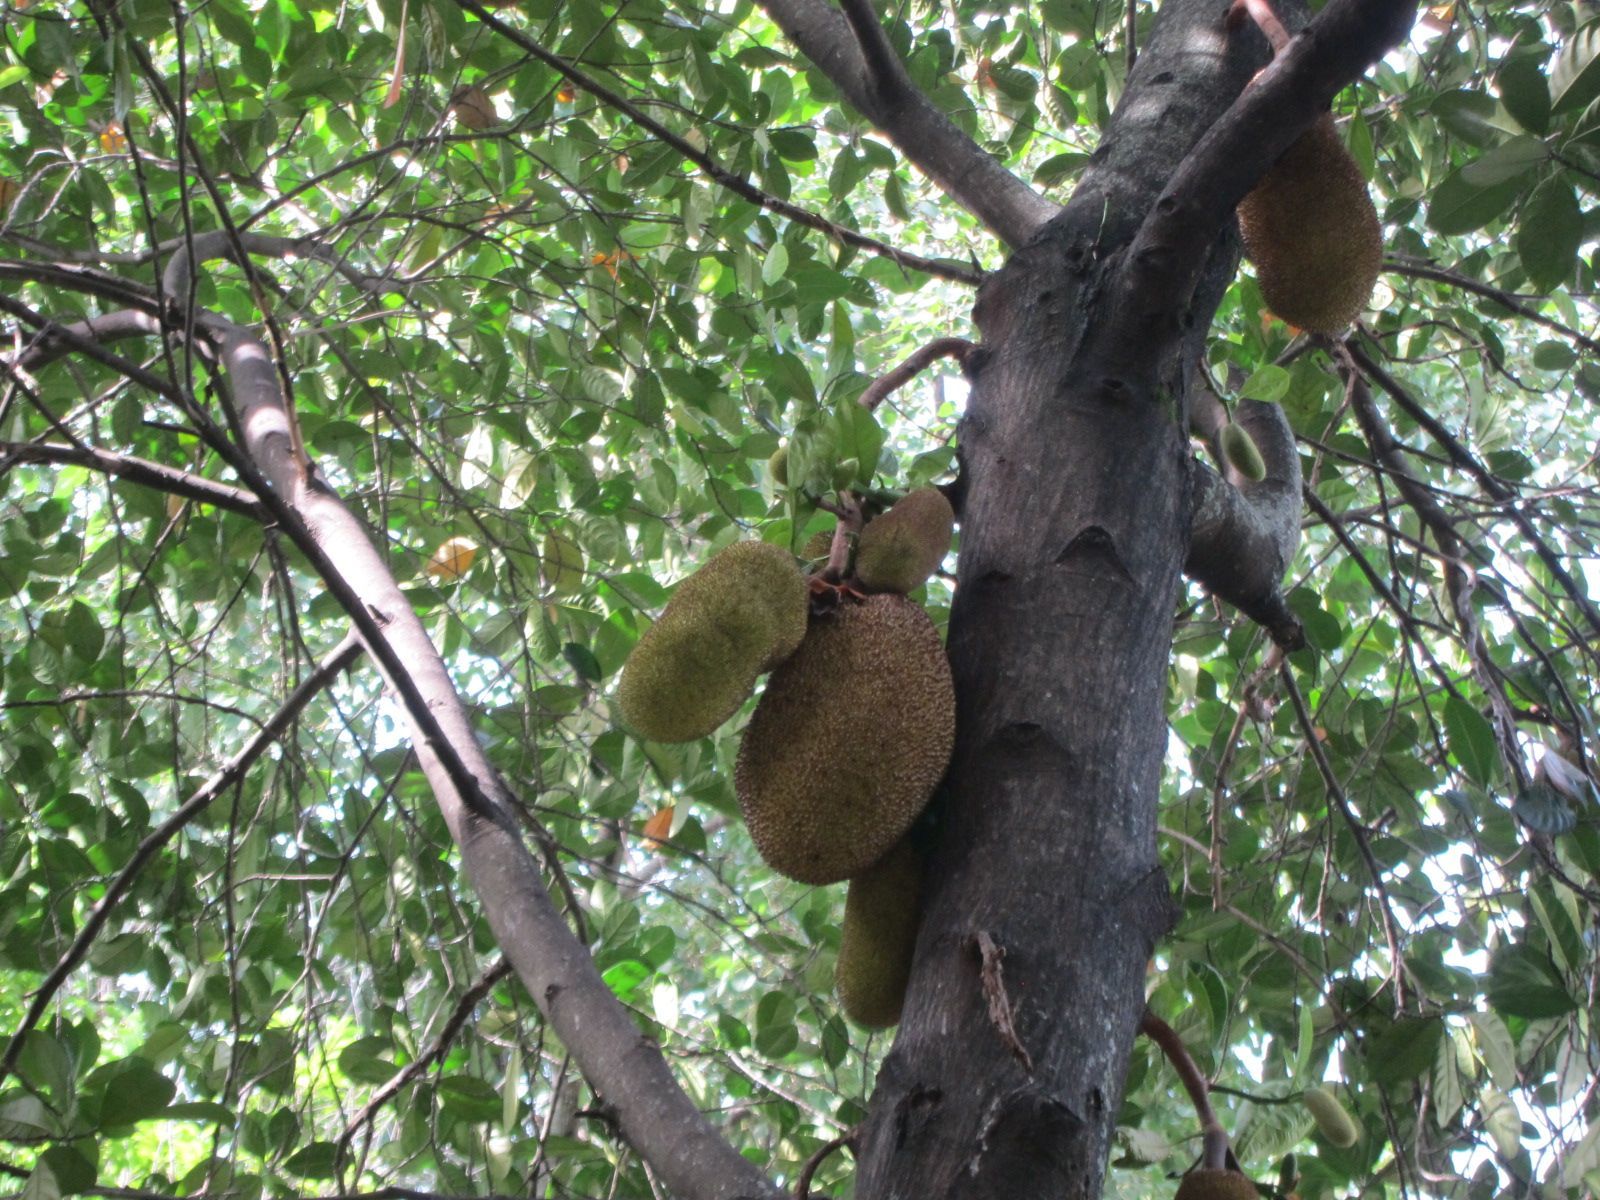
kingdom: Plantae
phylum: Tracheophyta
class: Magnoliopsida
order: Rosales
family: Moraceae
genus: Artocarpus
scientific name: Artocarpus heterophyllus
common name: Jackfruit
